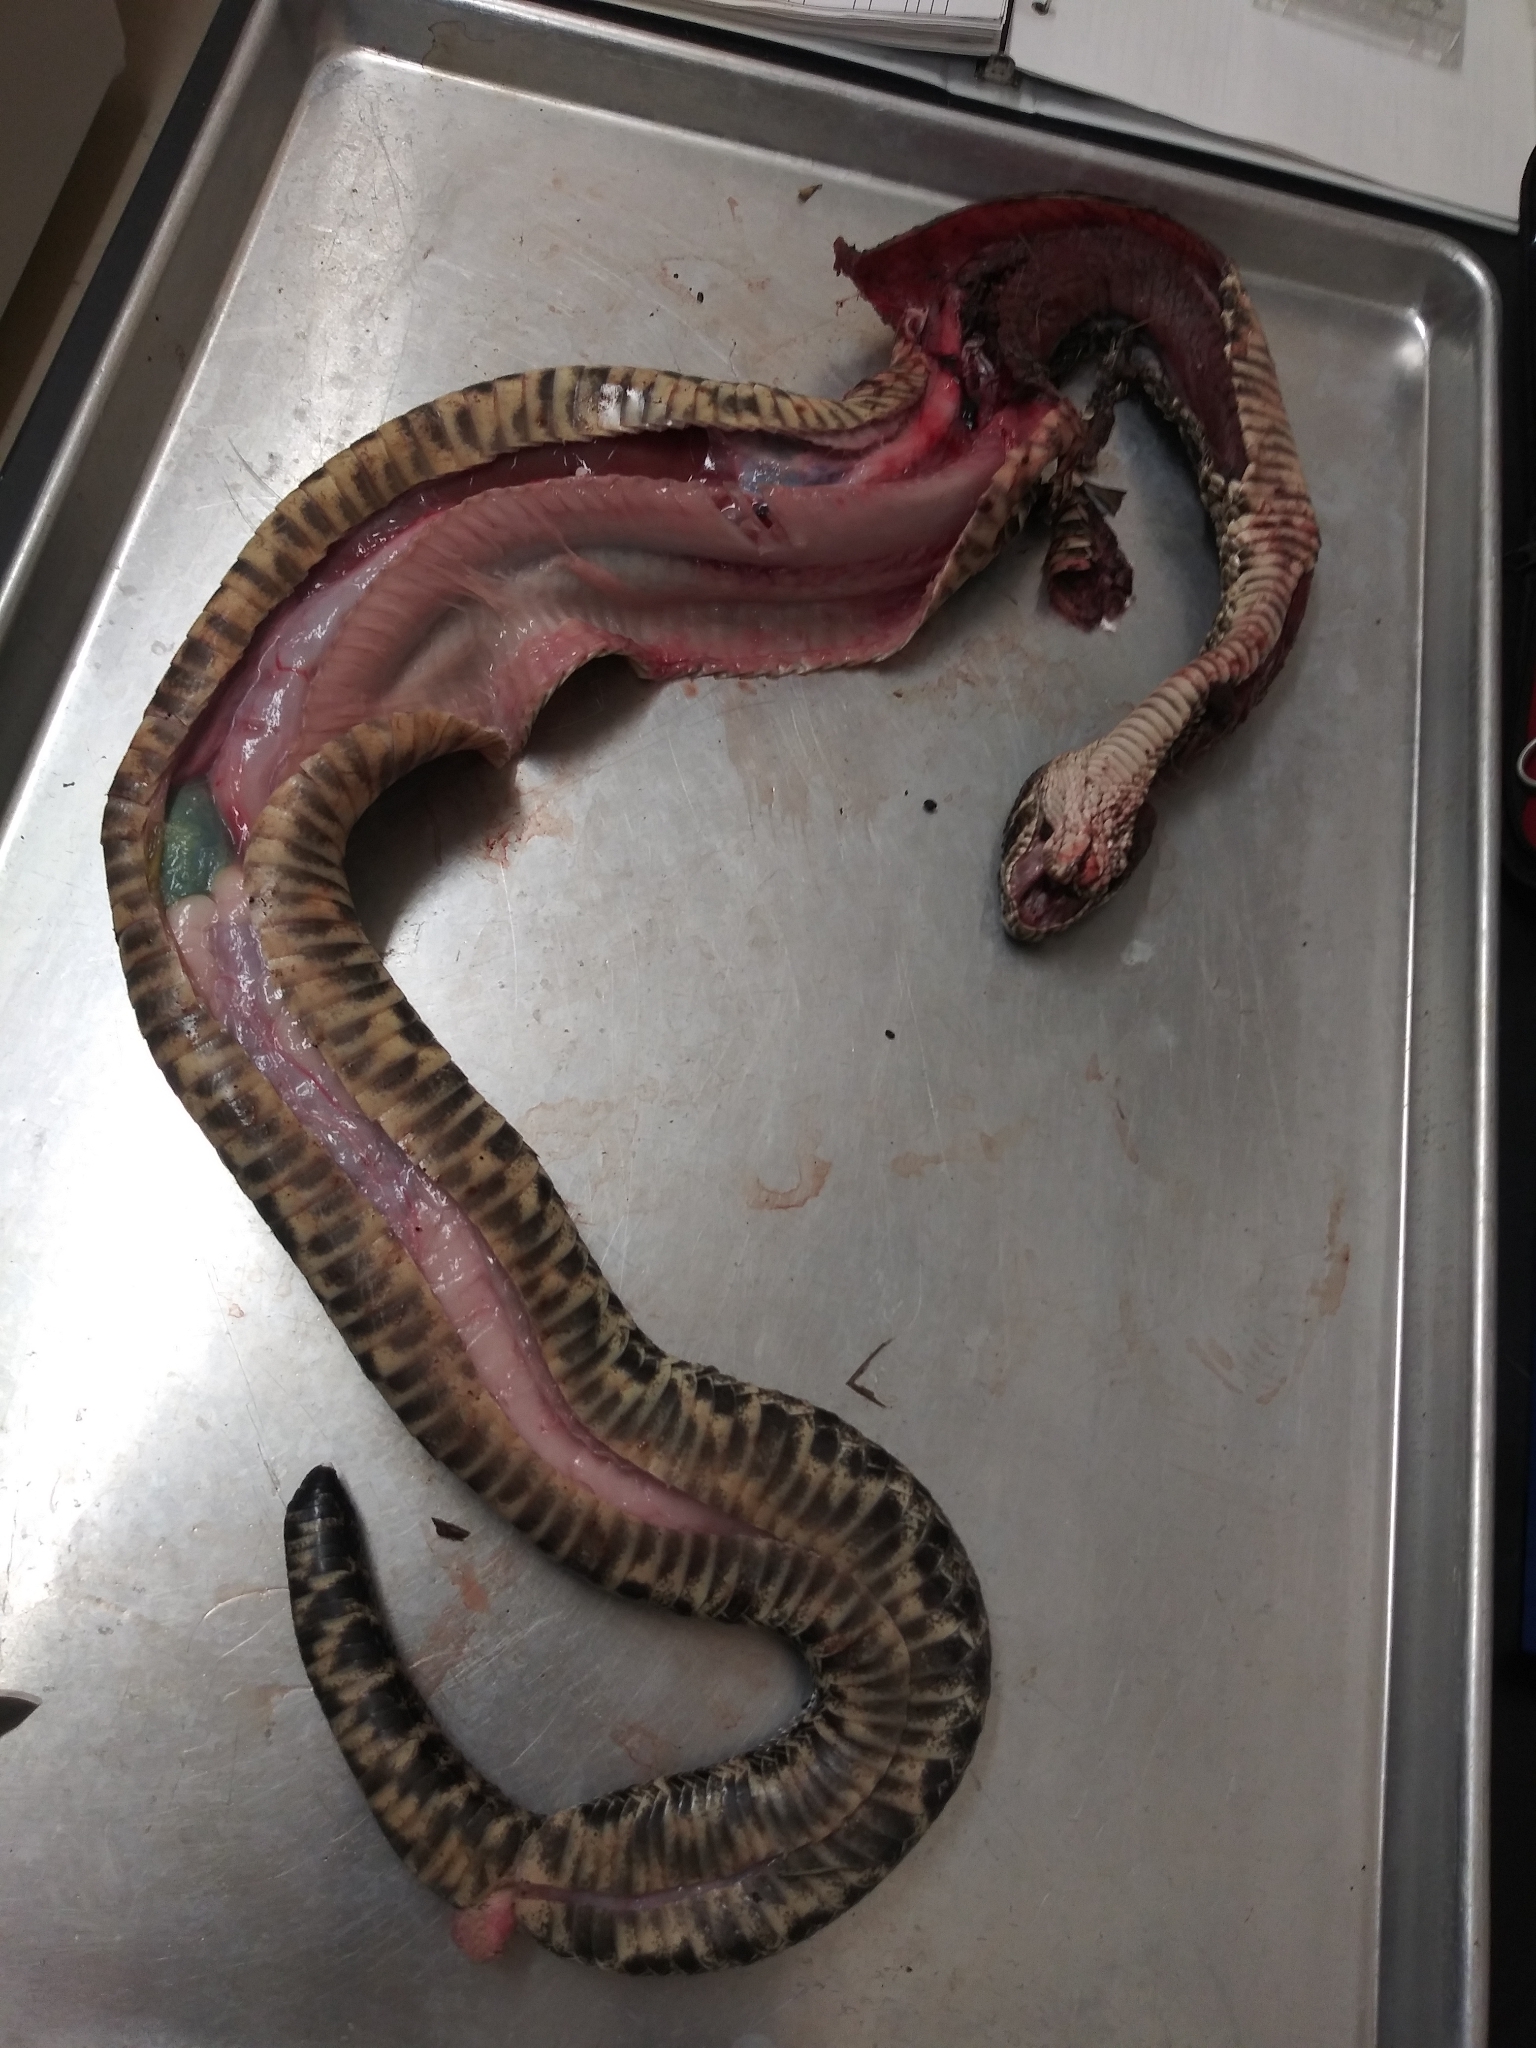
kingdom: Animalia
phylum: Chordata
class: Squamata
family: Viperidae
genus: Crotalus
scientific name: Crotalus adamanteus
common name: Eastern diamondback rattlesnake
